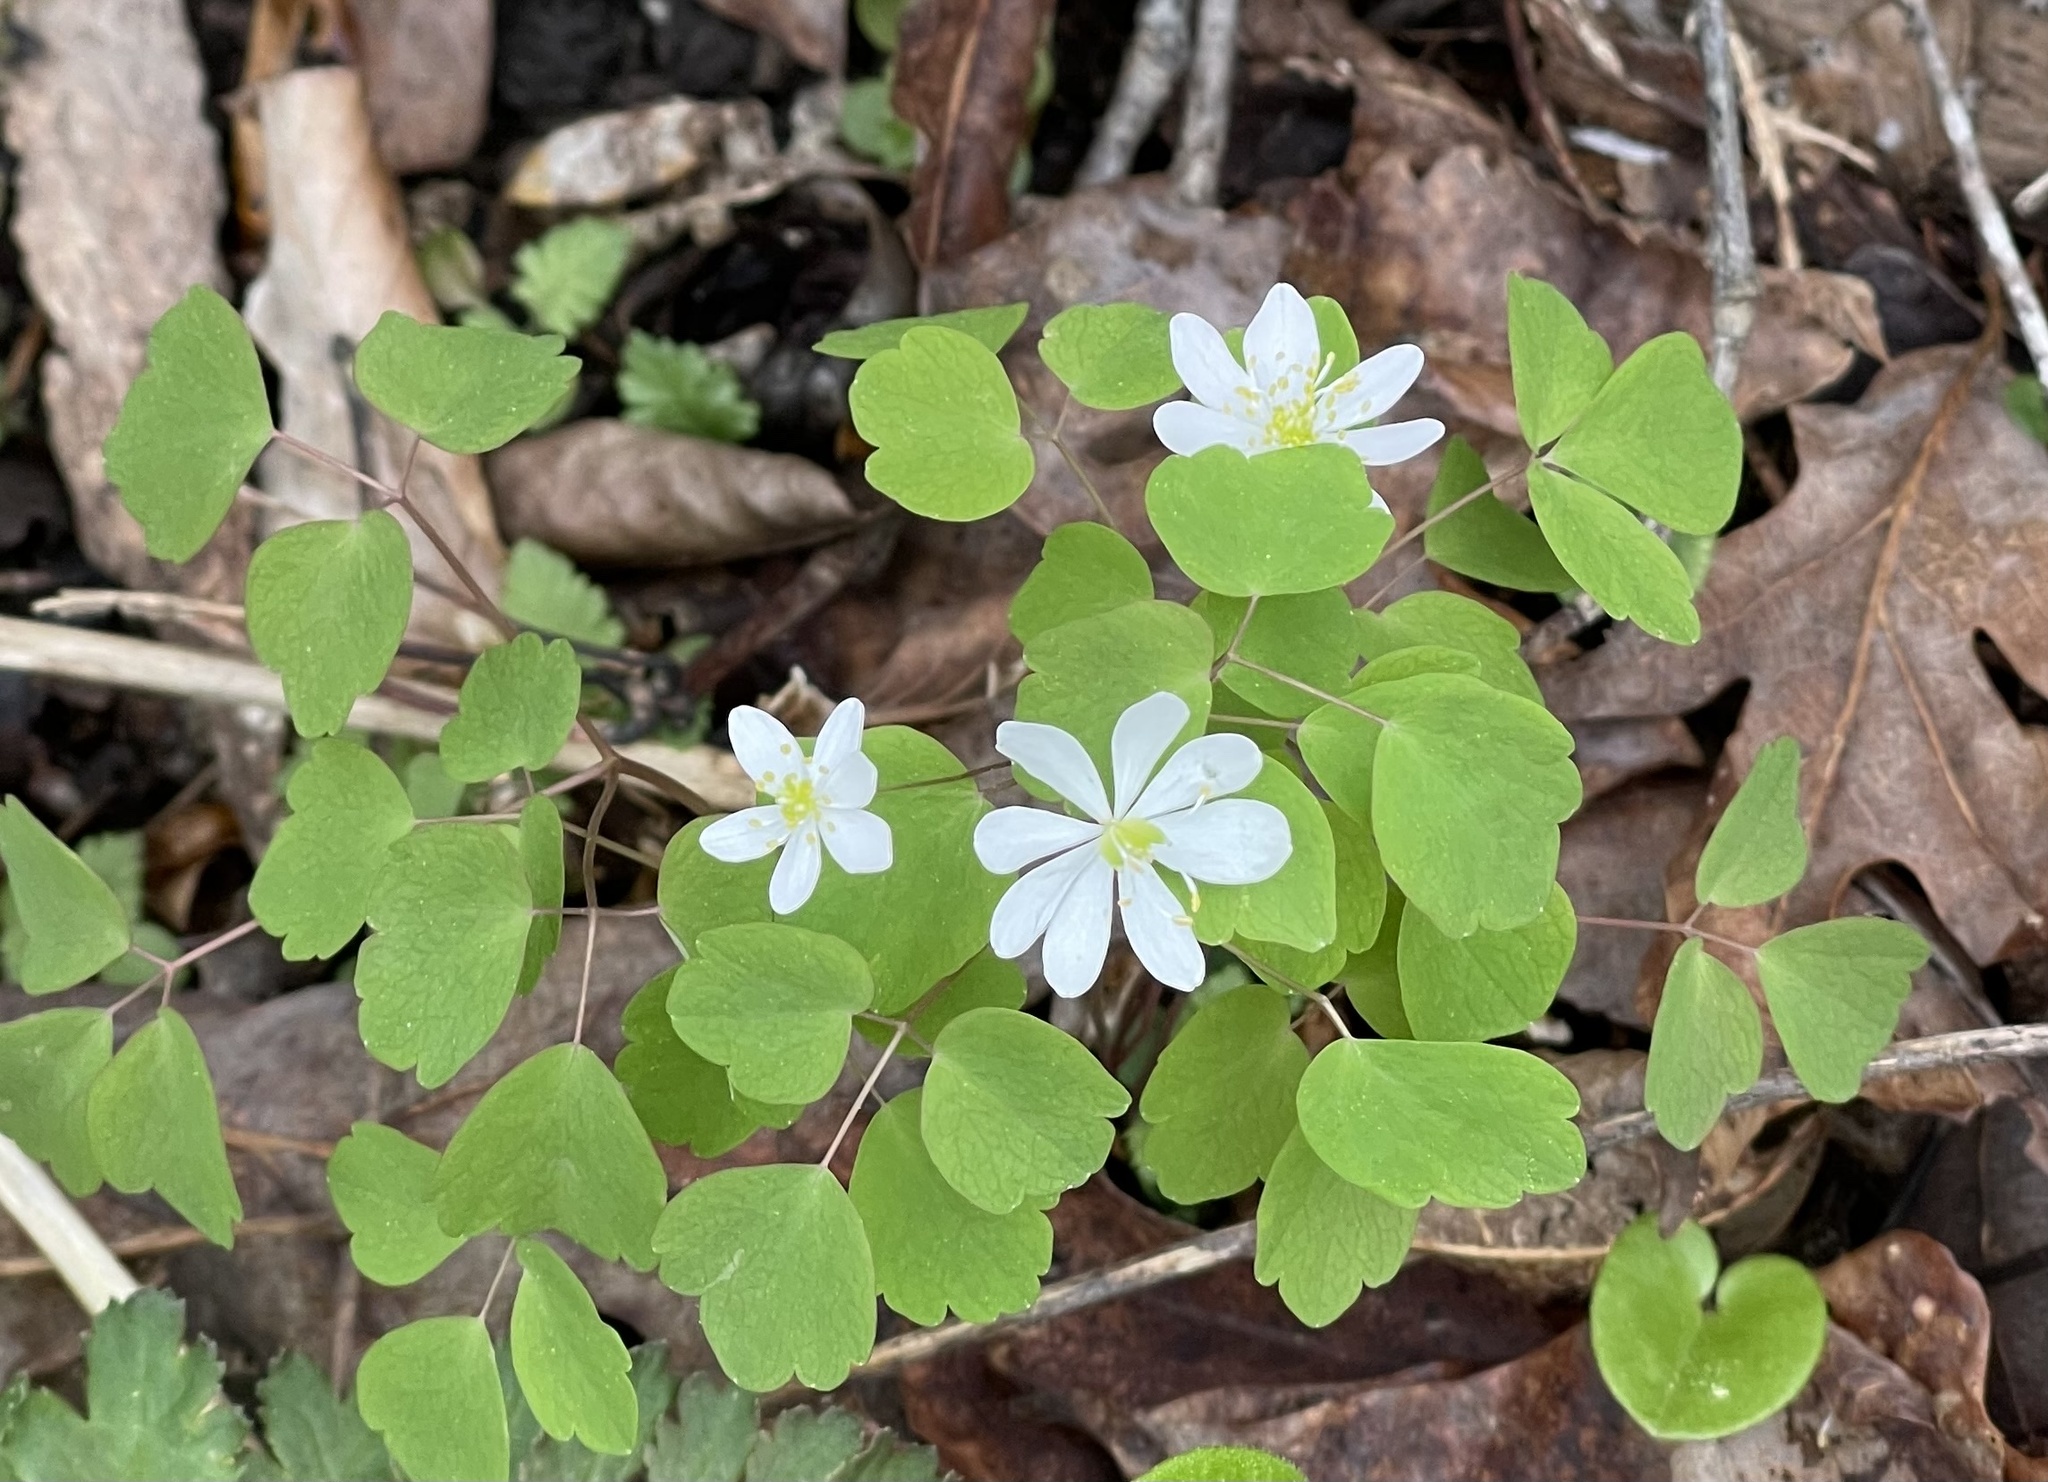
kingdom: Plantae
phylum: Tracheophyta
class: Magnoliopsida
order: Ranunculales
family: Ranunculaceae
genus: Thalictrum
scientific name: Thalictrum thalictroides
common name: Rue-anemone
